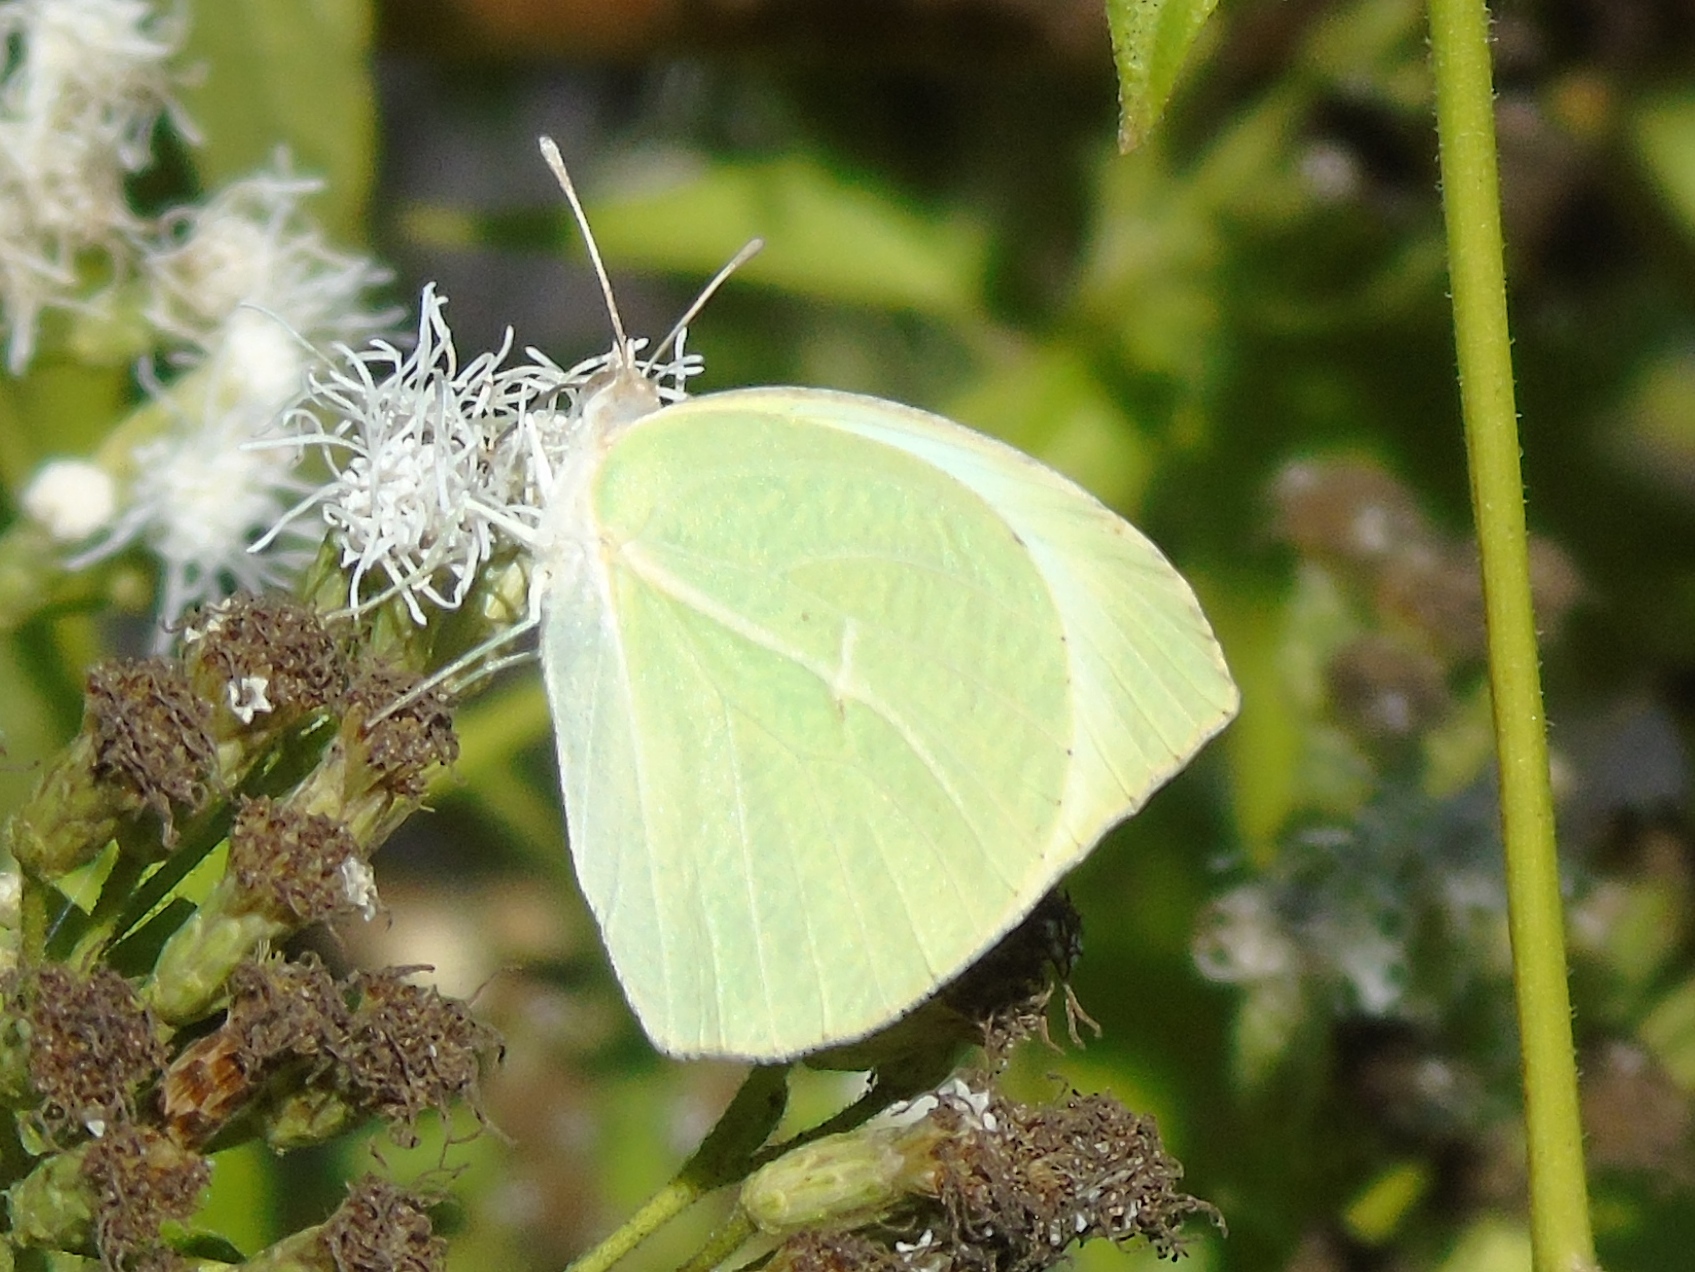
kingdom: Animalia
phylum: Arthropoda
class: Insecta
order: Lepidoptera
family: Pieridae
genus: Kricogonia
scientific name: Kricogonia lyside
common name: Guayacan sulphur,
